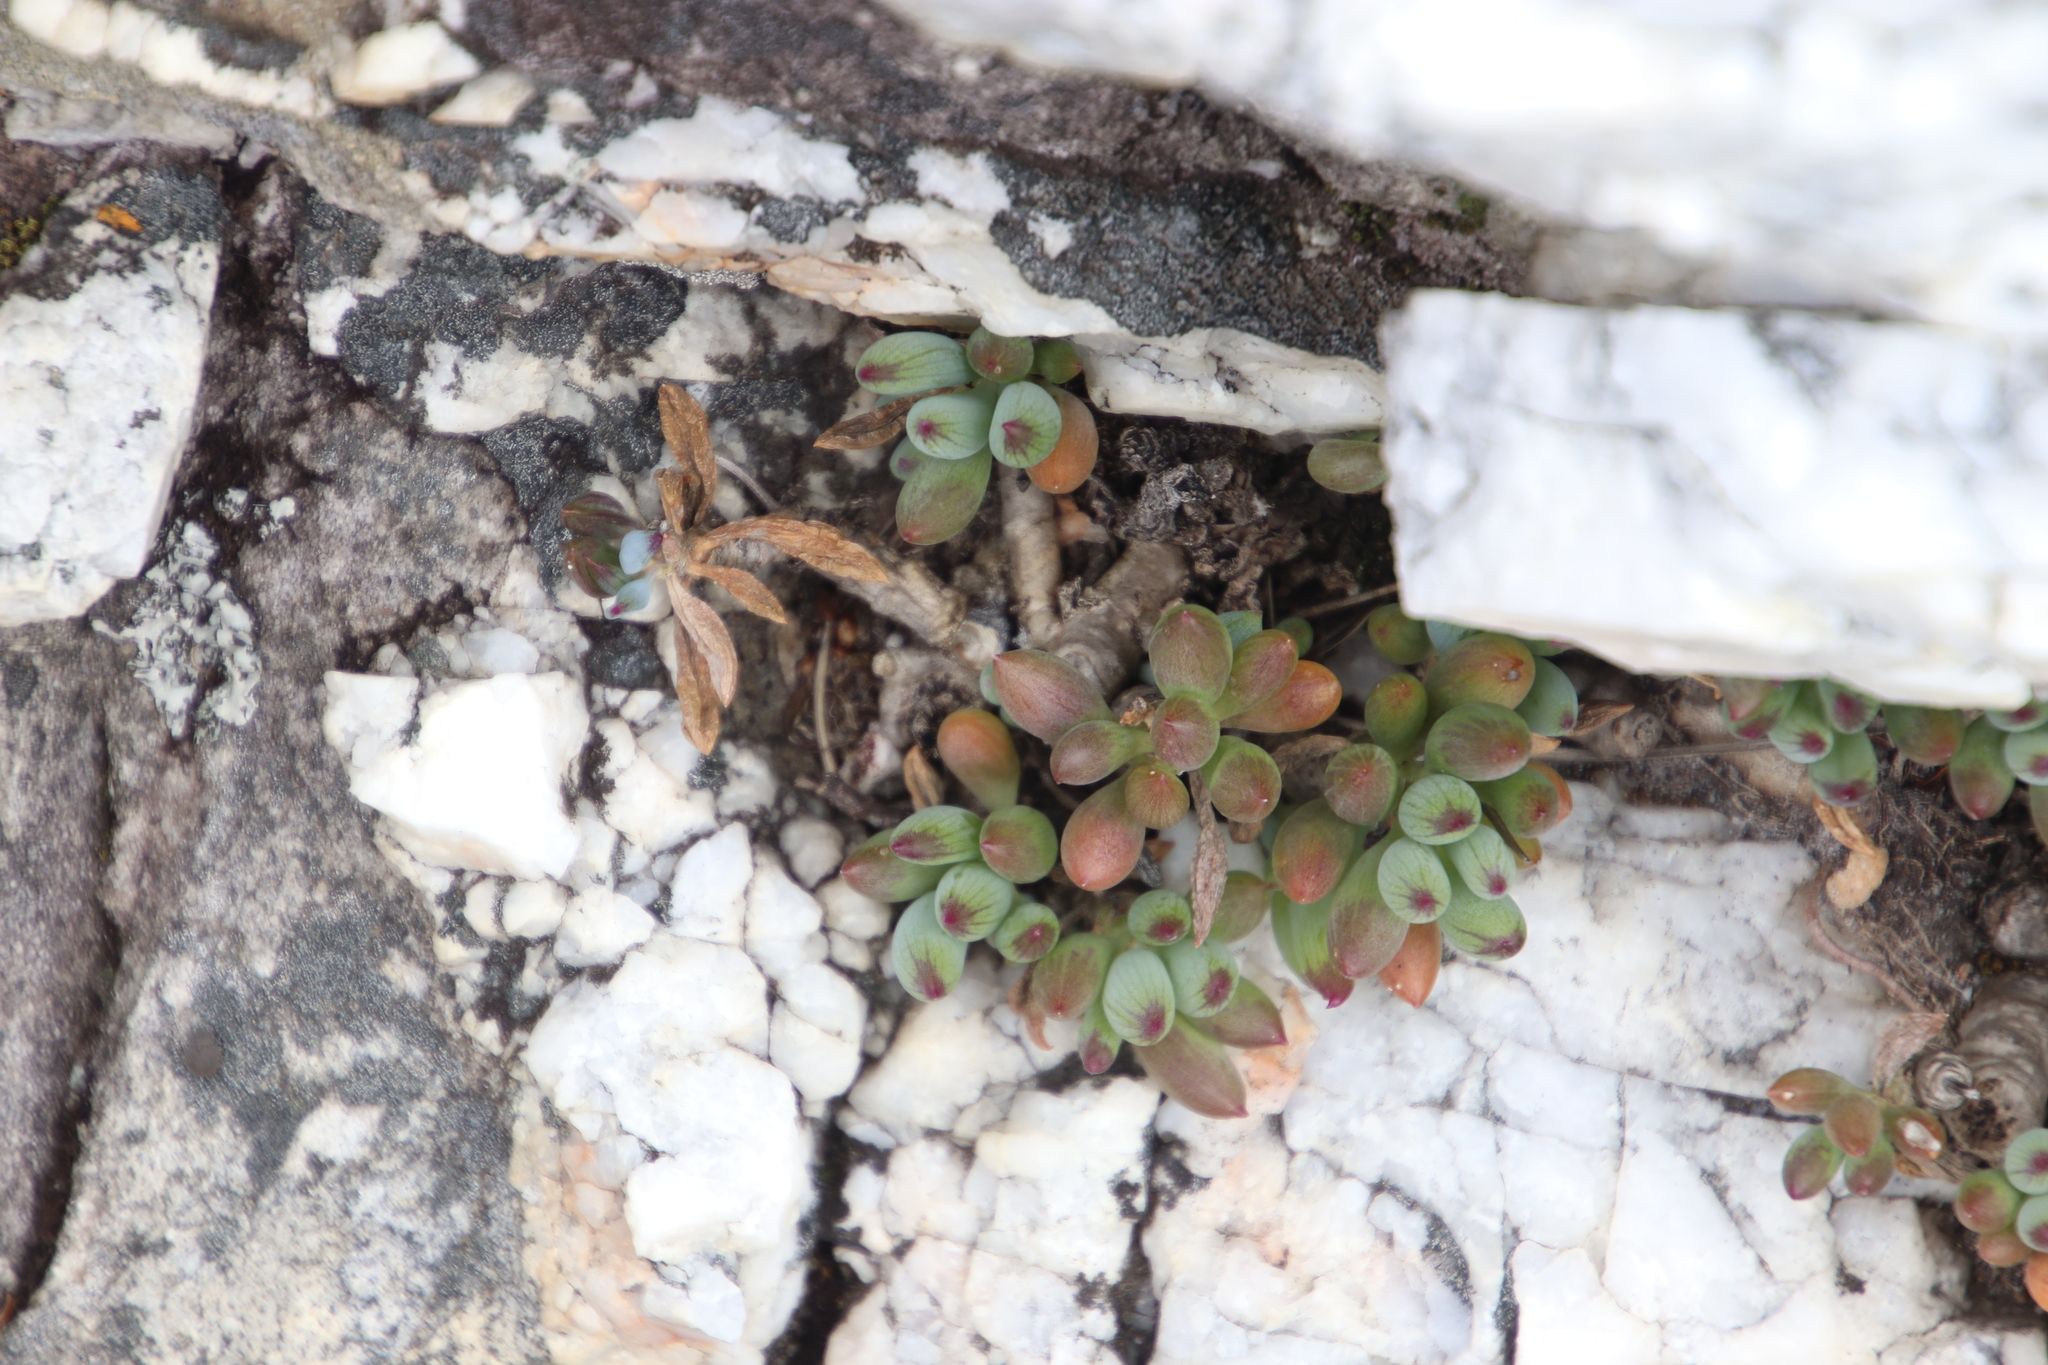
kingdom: Plantae
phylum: Tracheophyta
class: Magnoliopsida
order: Asterales
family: Asteraceae
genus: Curio
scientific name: Curio crassulifolius
